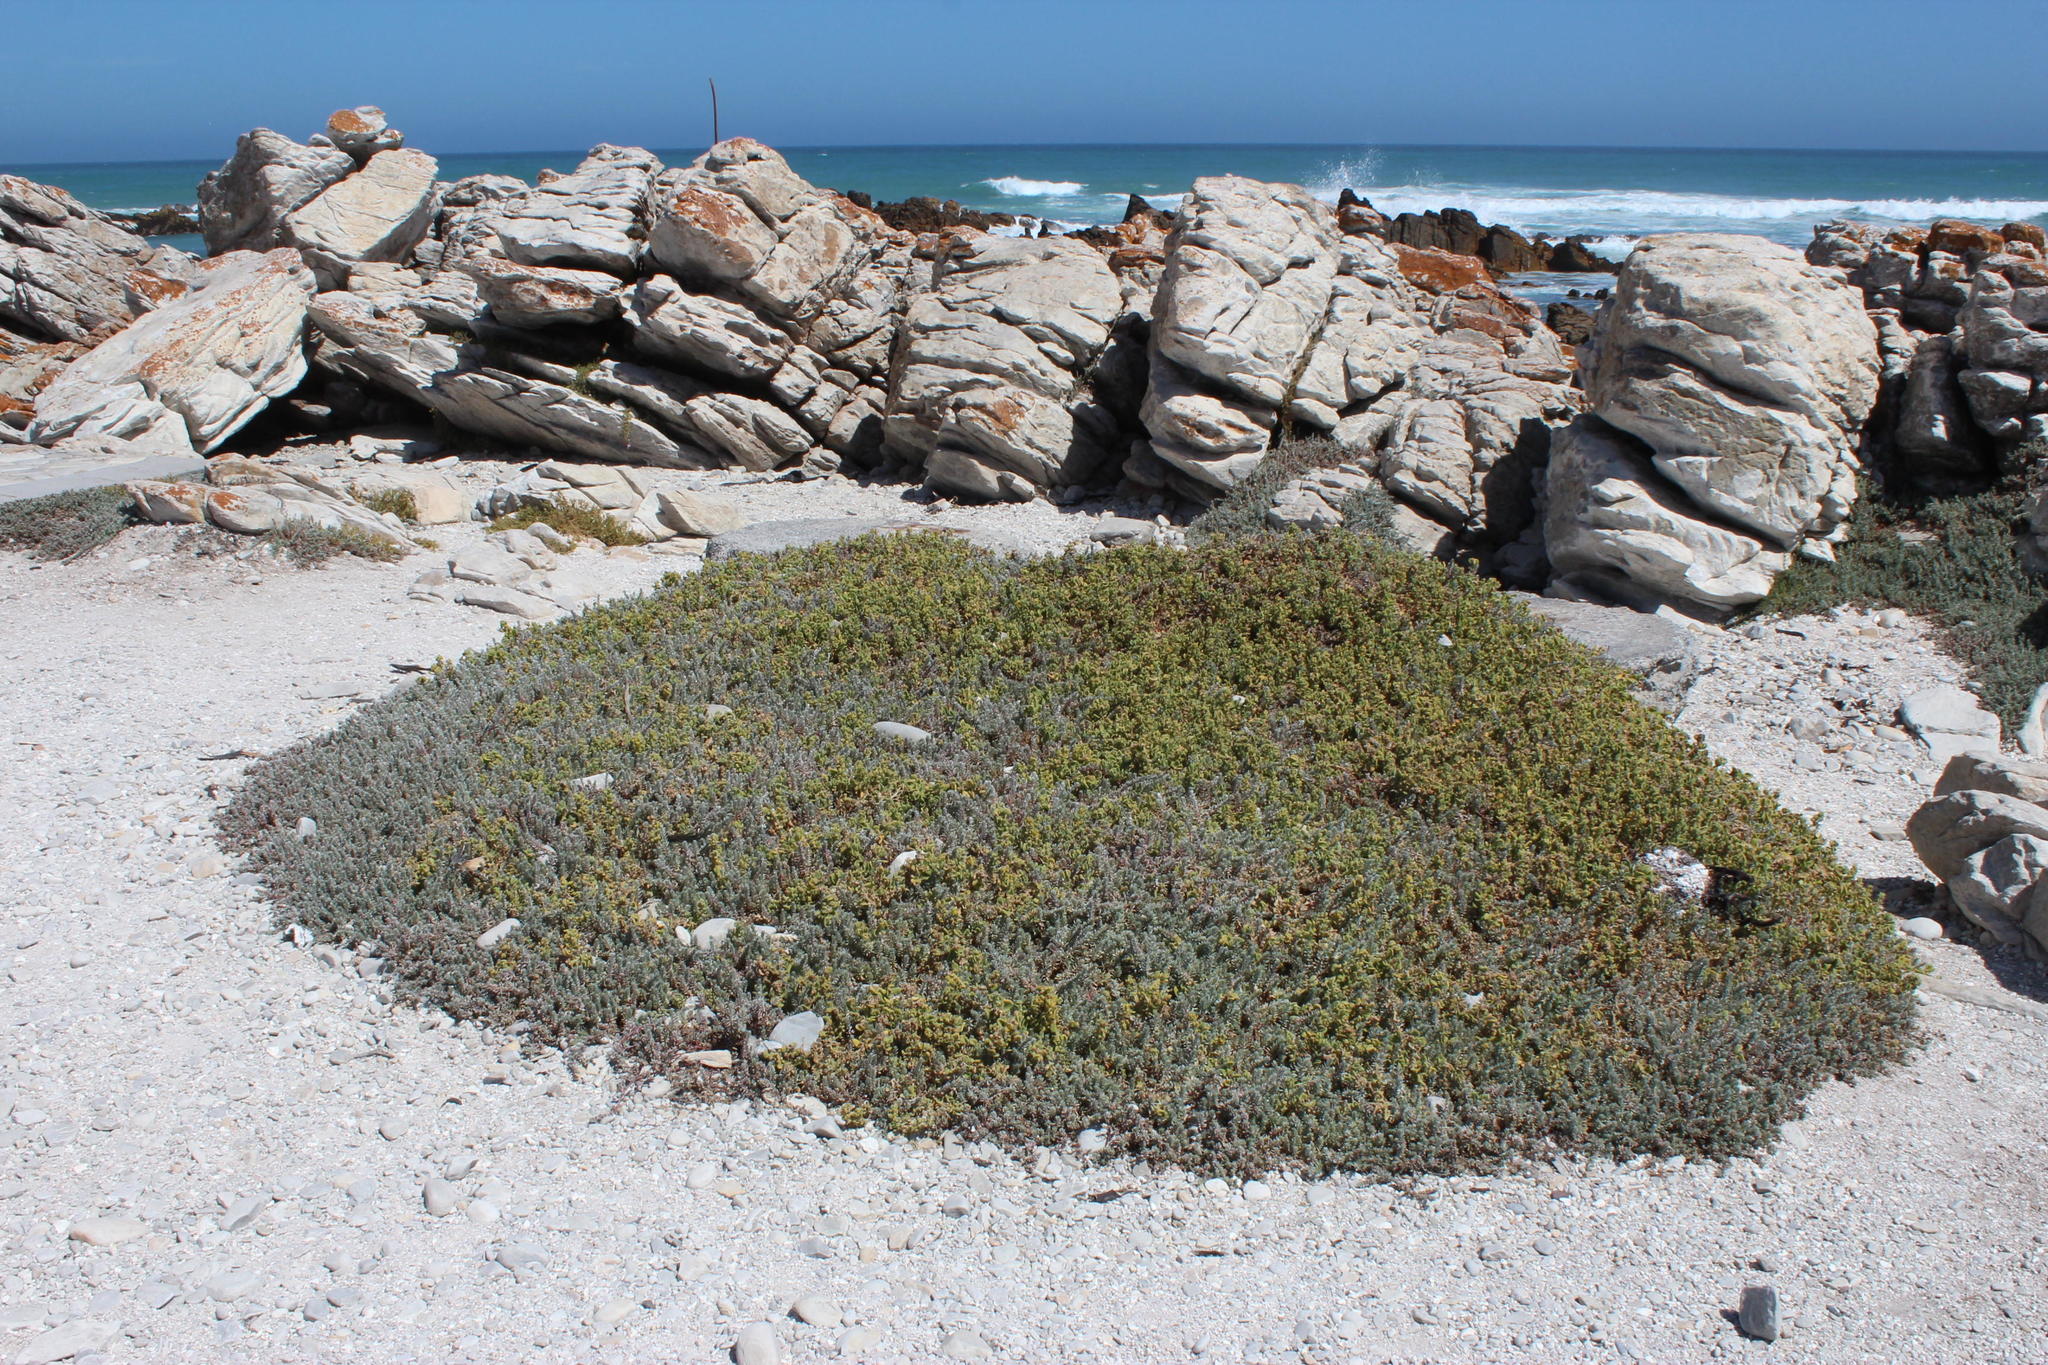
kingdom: Plantae
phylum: Tracheophyta
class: Magnoliopsida
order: Caryophyllales
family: Aizoaceae
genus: Tetragonia
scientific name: Tetragonia decumbens
